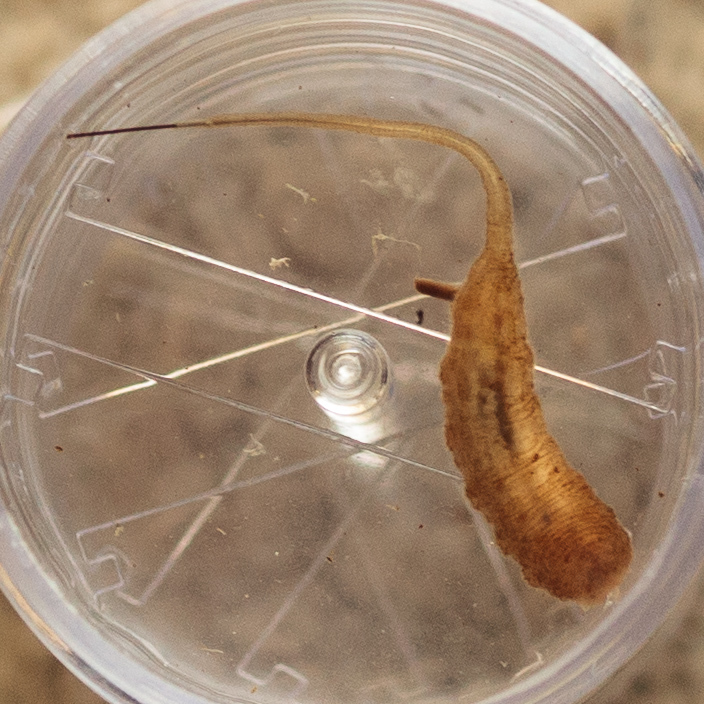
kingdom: Animalia
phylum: Arthropoda
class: Insecta
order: Diptera
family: Syrphidae
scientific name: Syrphidae
